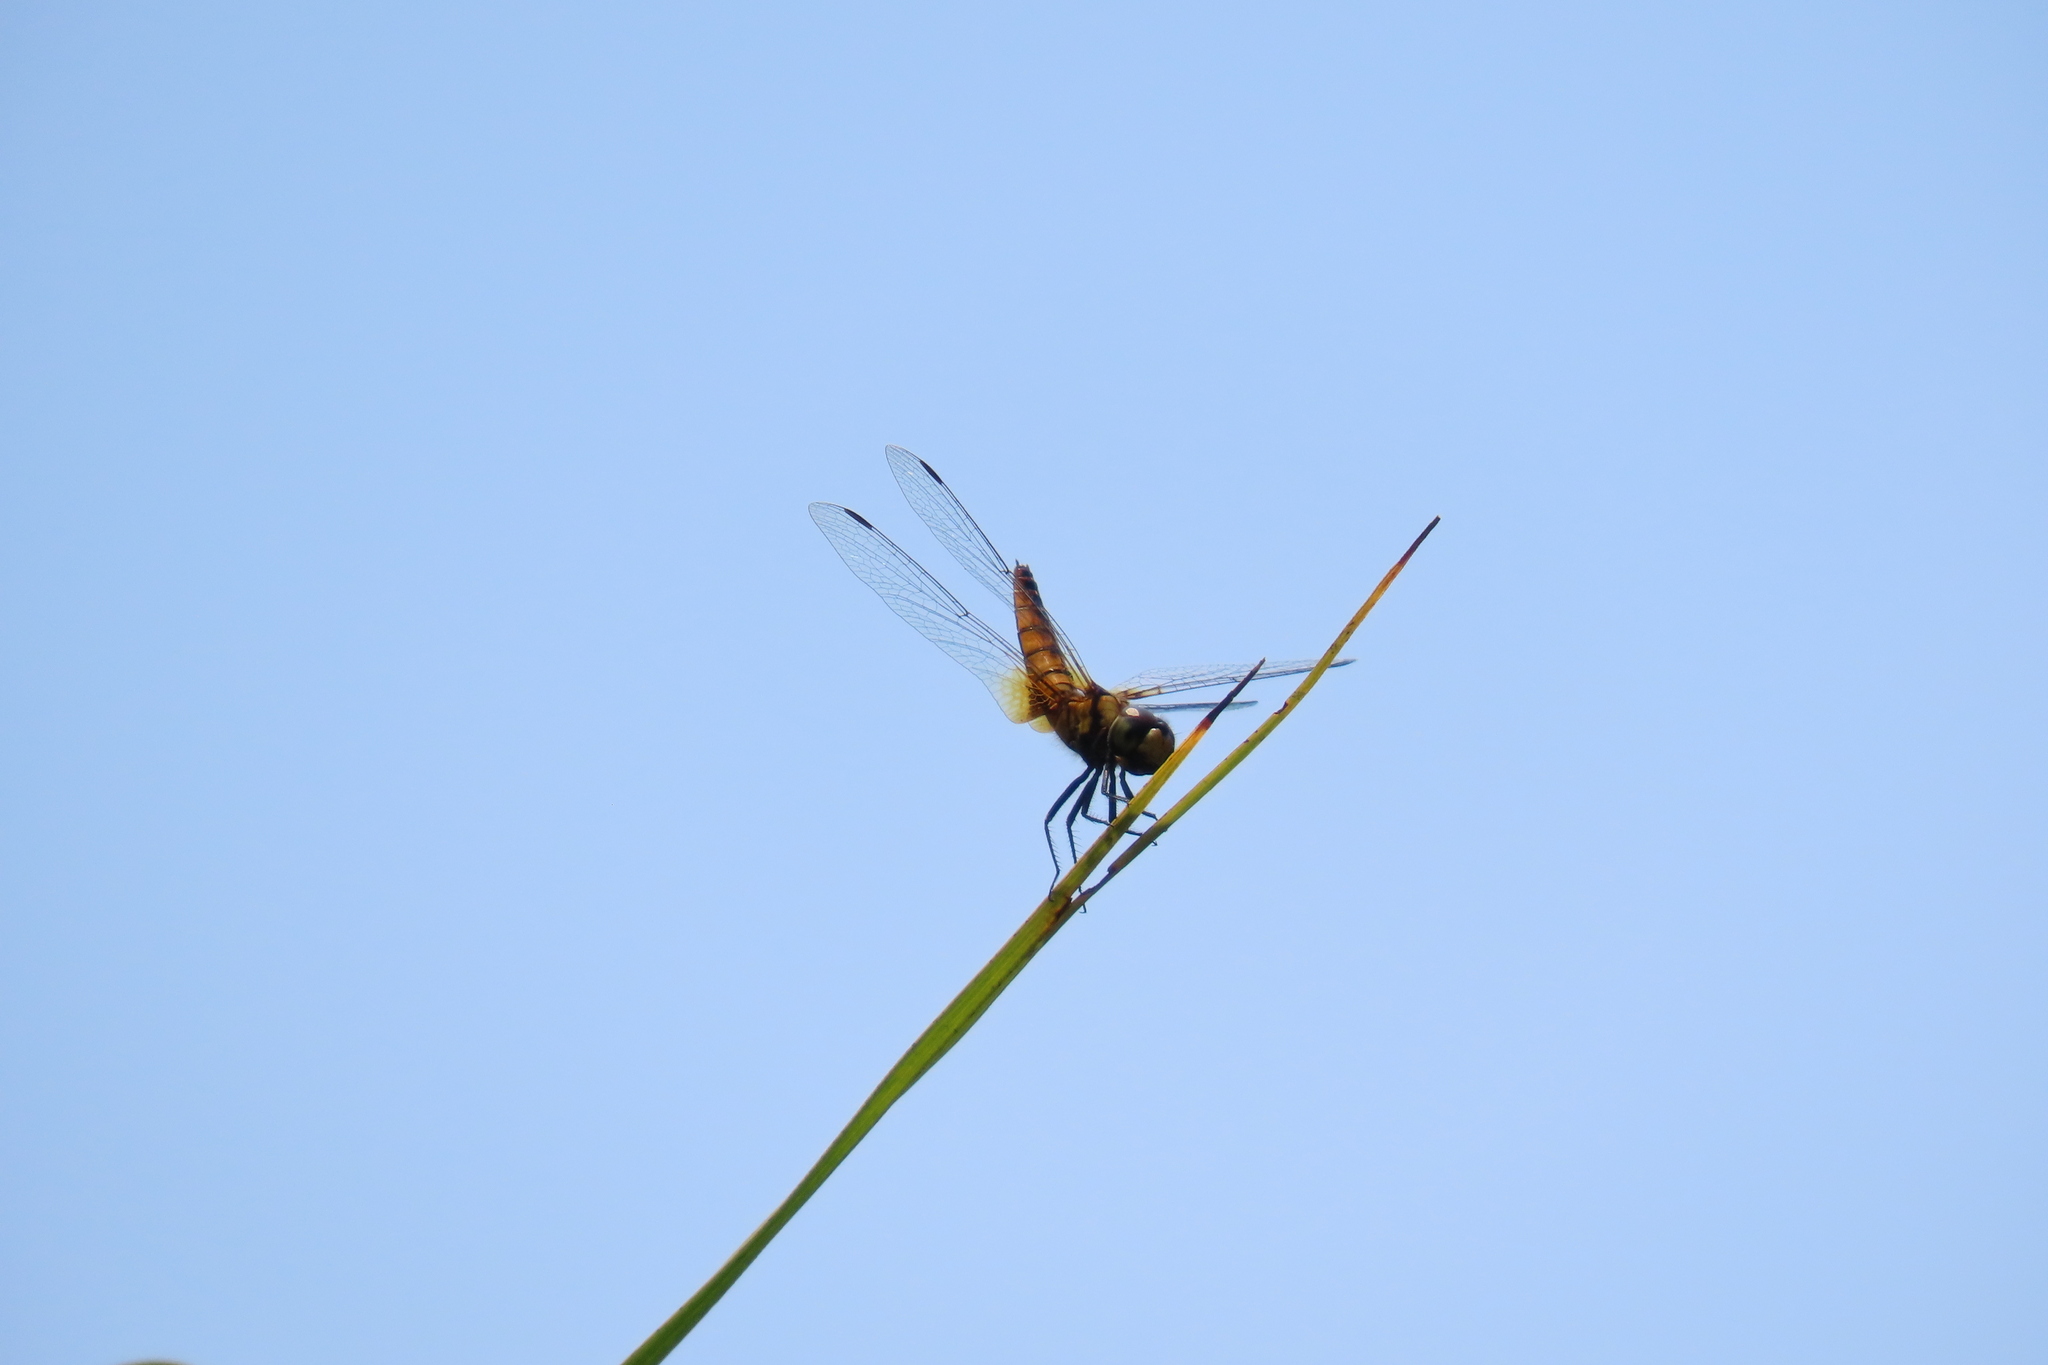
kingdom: Animalia
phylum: Arthropoda
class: Insecta
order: Odonata
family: Libellulidae
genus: Aethriamanta
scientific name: Aethriamanta brevipennis
